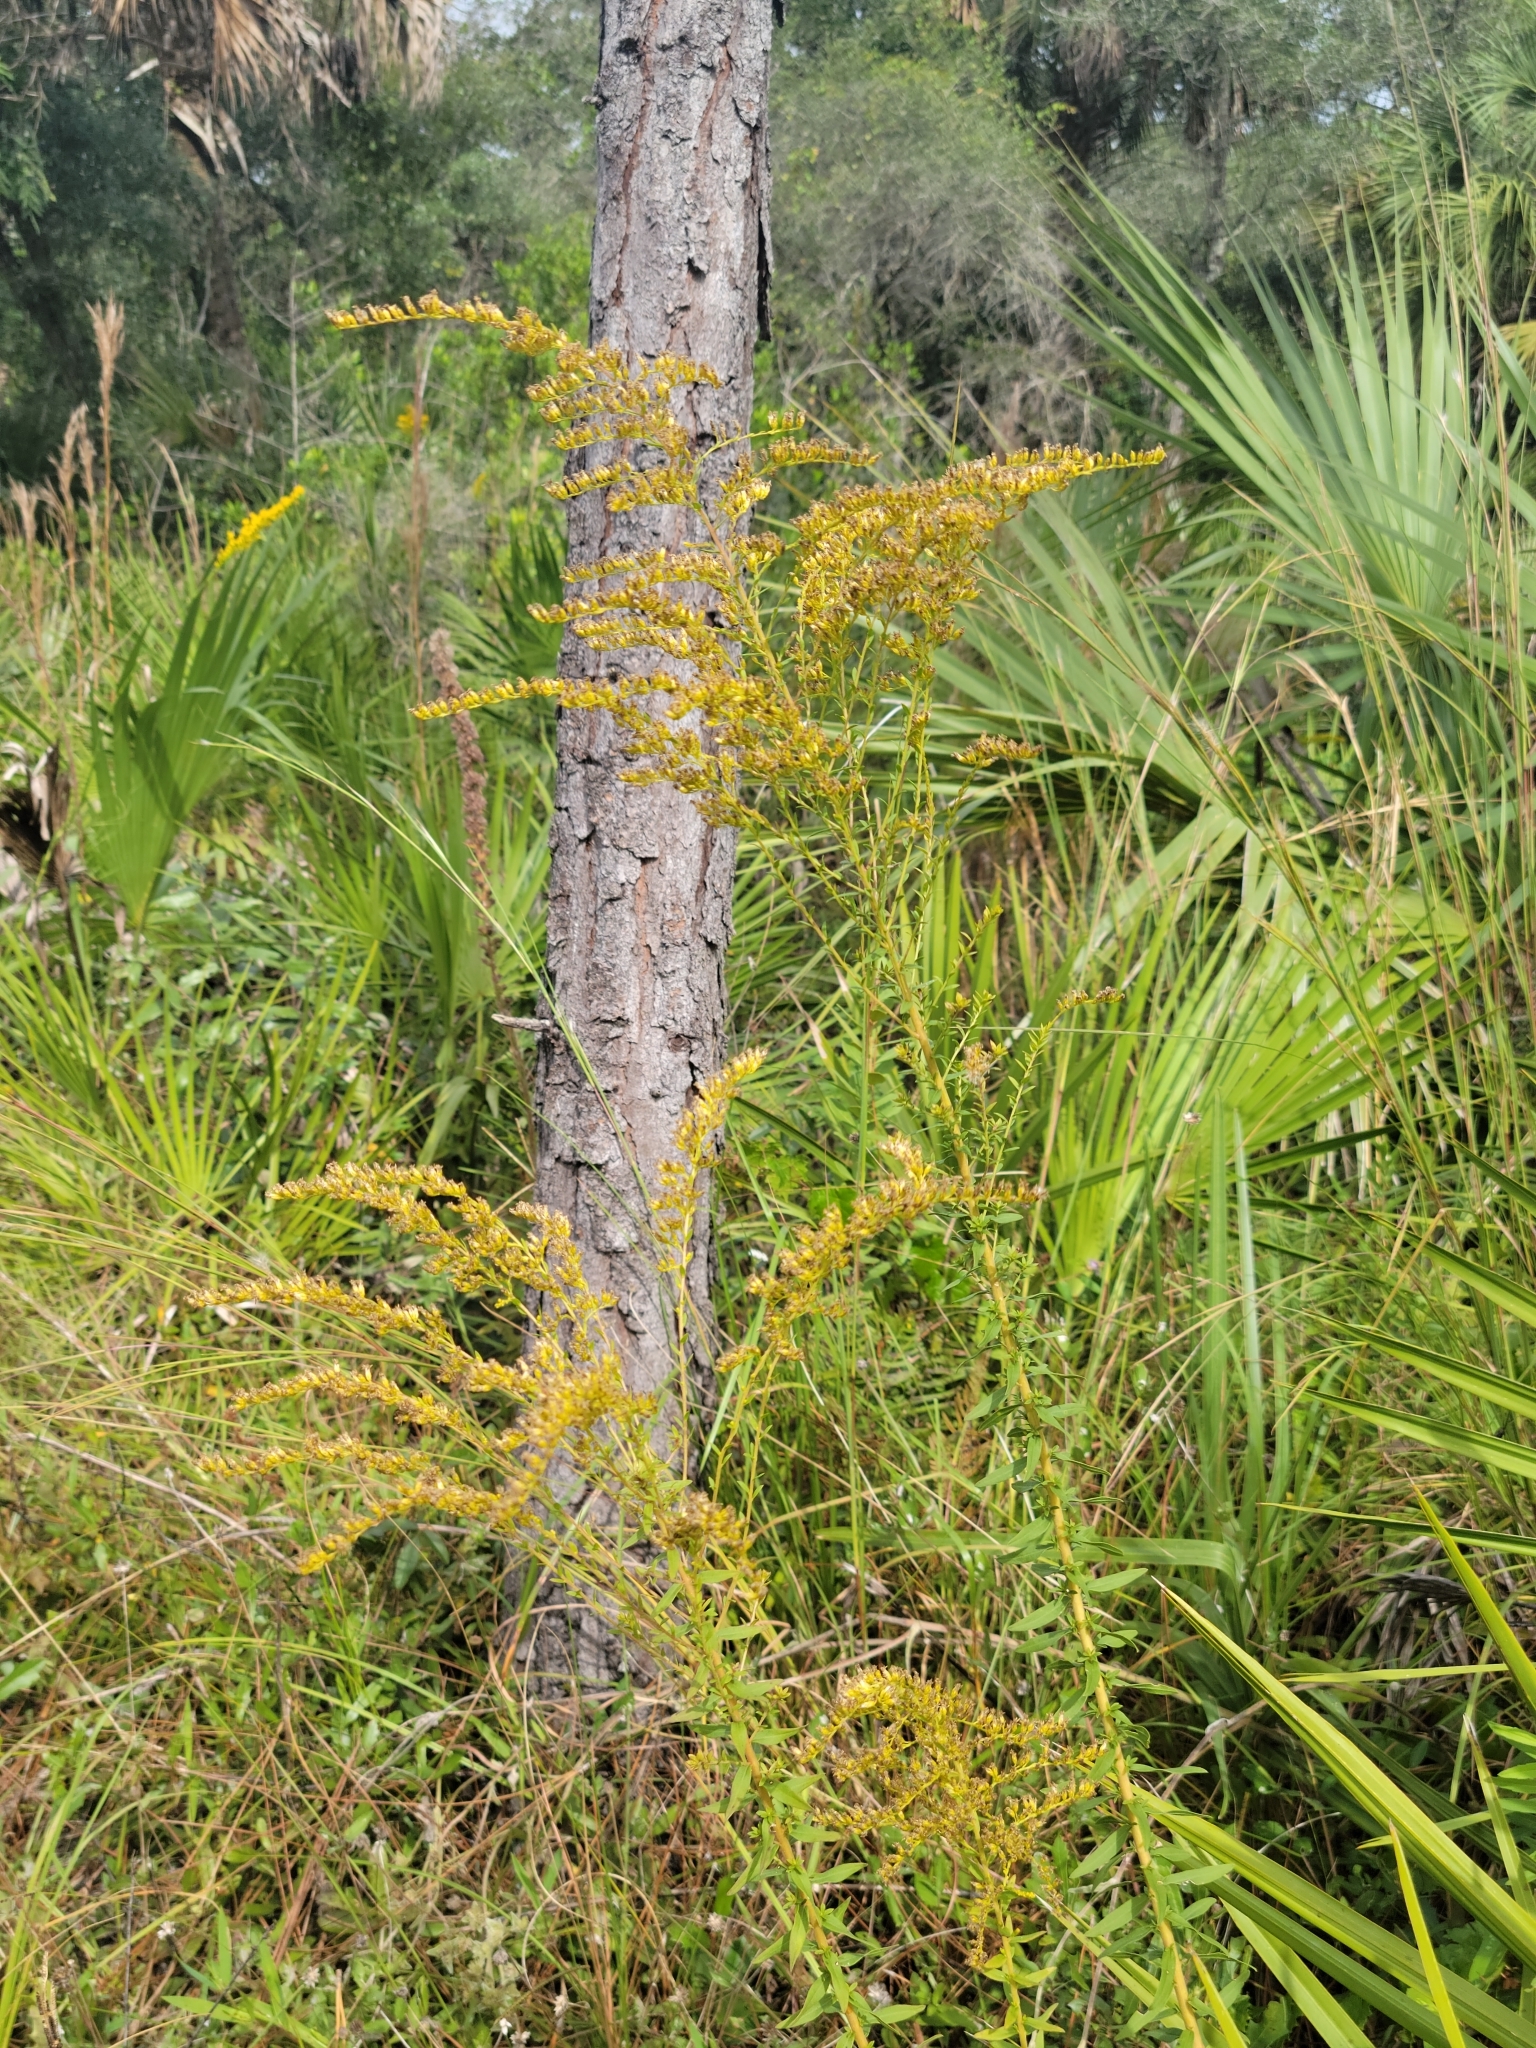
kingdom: Plantae
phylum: Tracheophyta
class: Magnoliopsida
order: Asterales
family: Asteraceae
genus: Solidago
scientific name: Solidago tortifolia
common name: Twisted-leaf goldenrod
